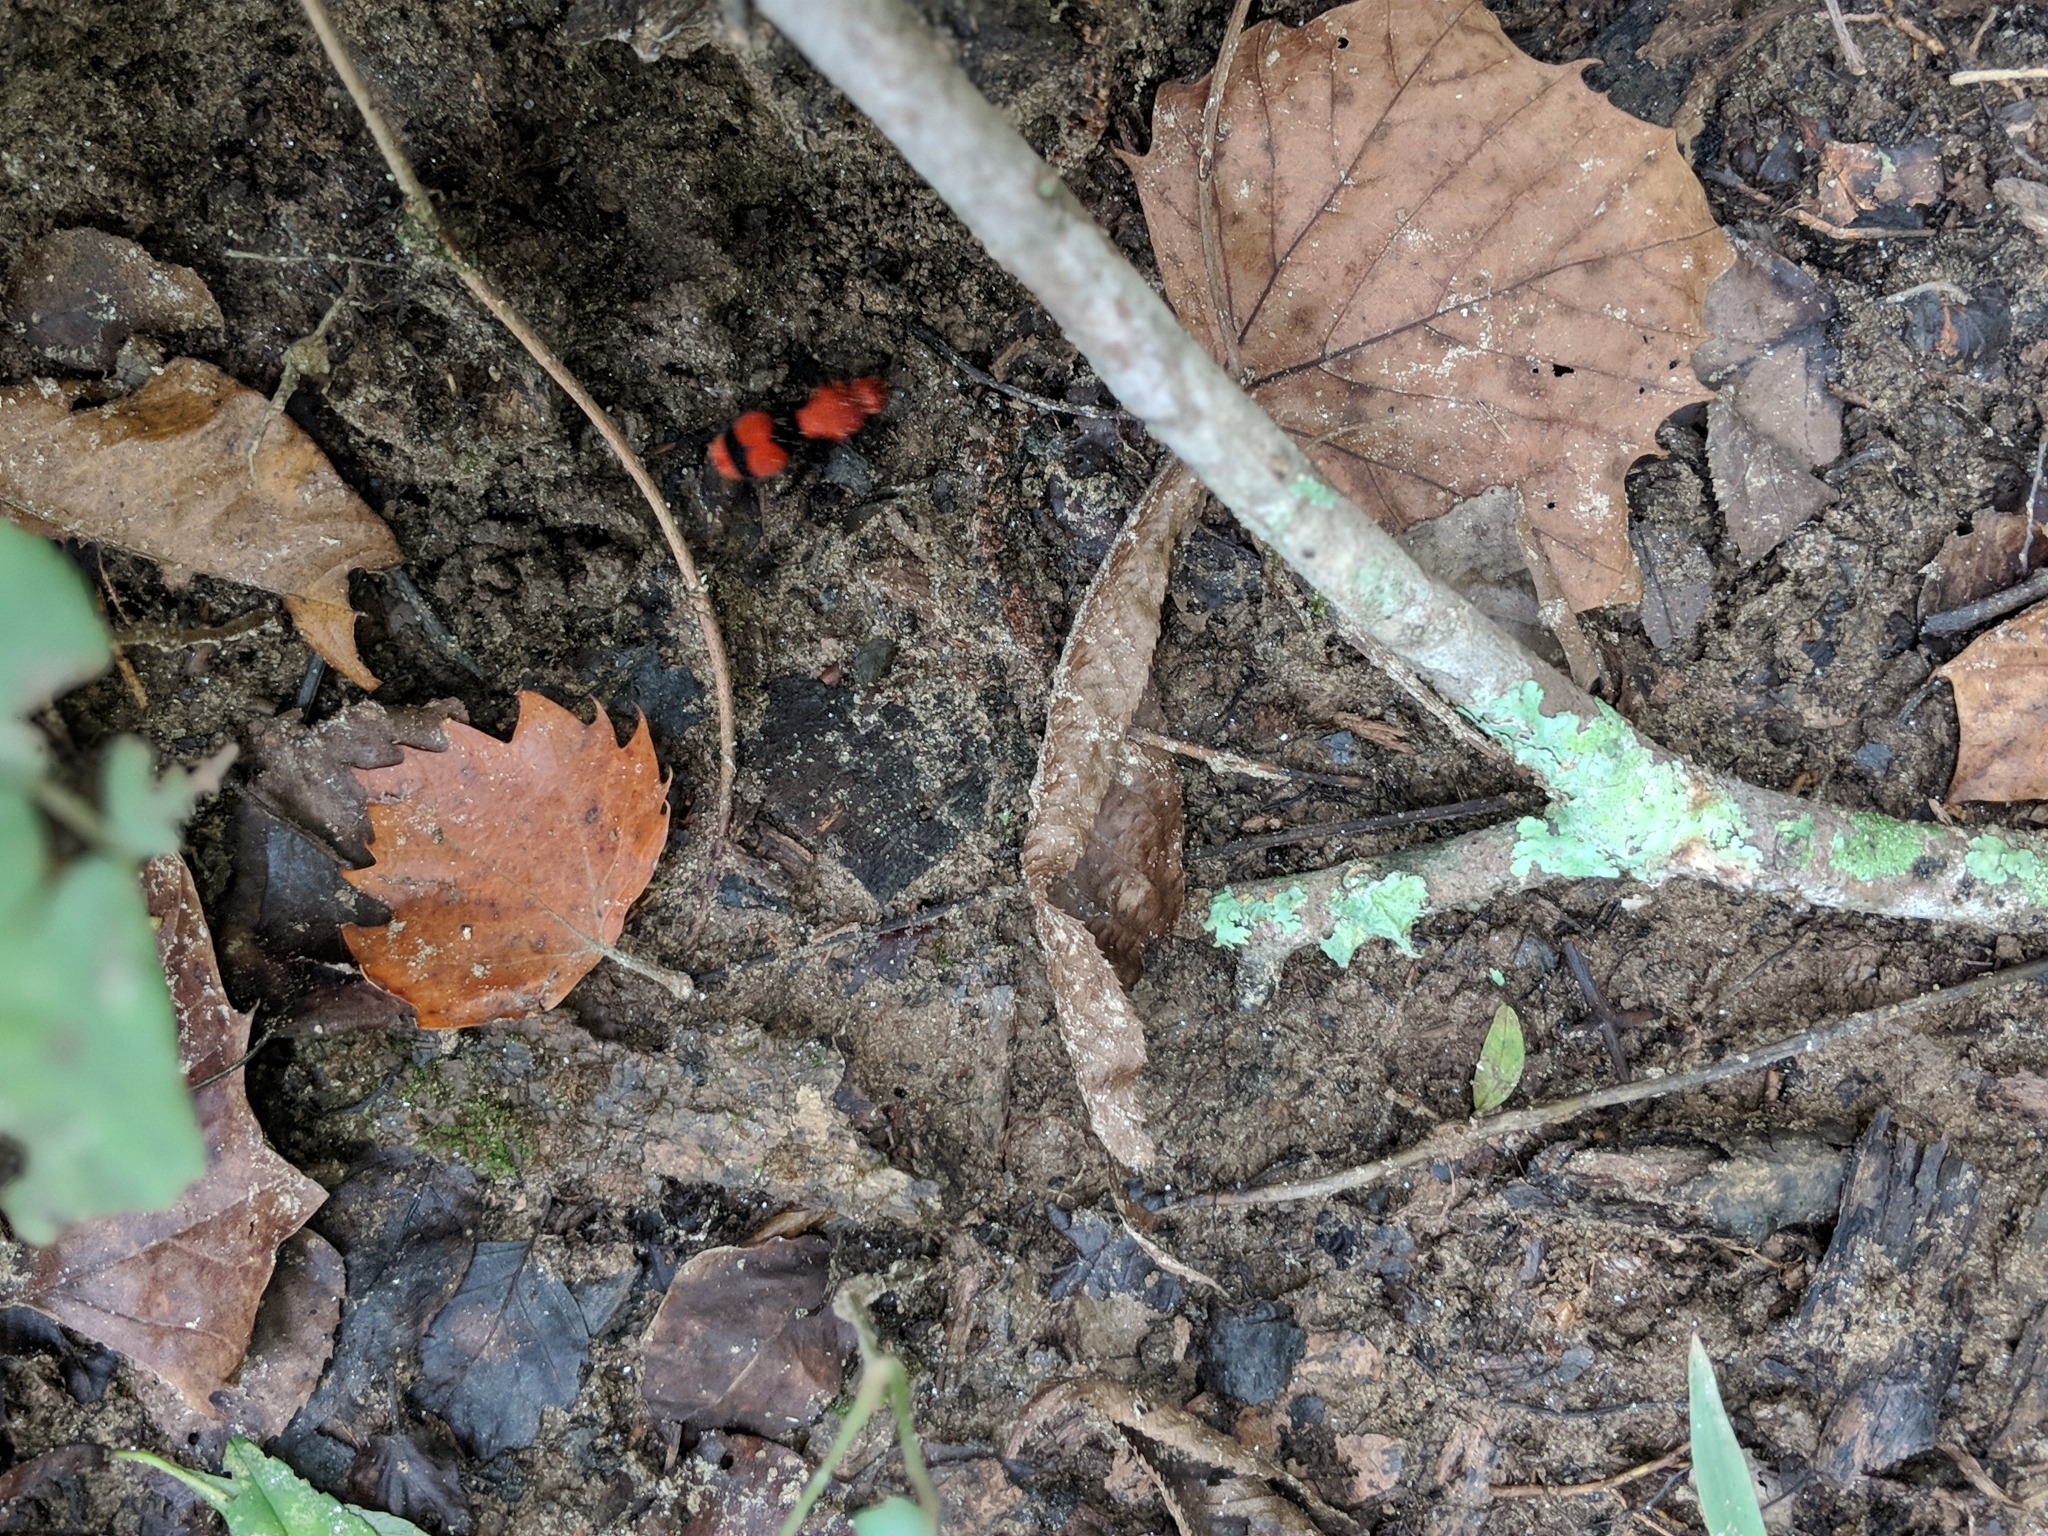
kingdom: Animalia
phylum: Arthropoda
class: Insecta
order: Hymenoptera
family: Mutillidae
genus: Dasymutilla
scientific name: Dasymutilla occidentalis
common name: Common eastern velvet ant
